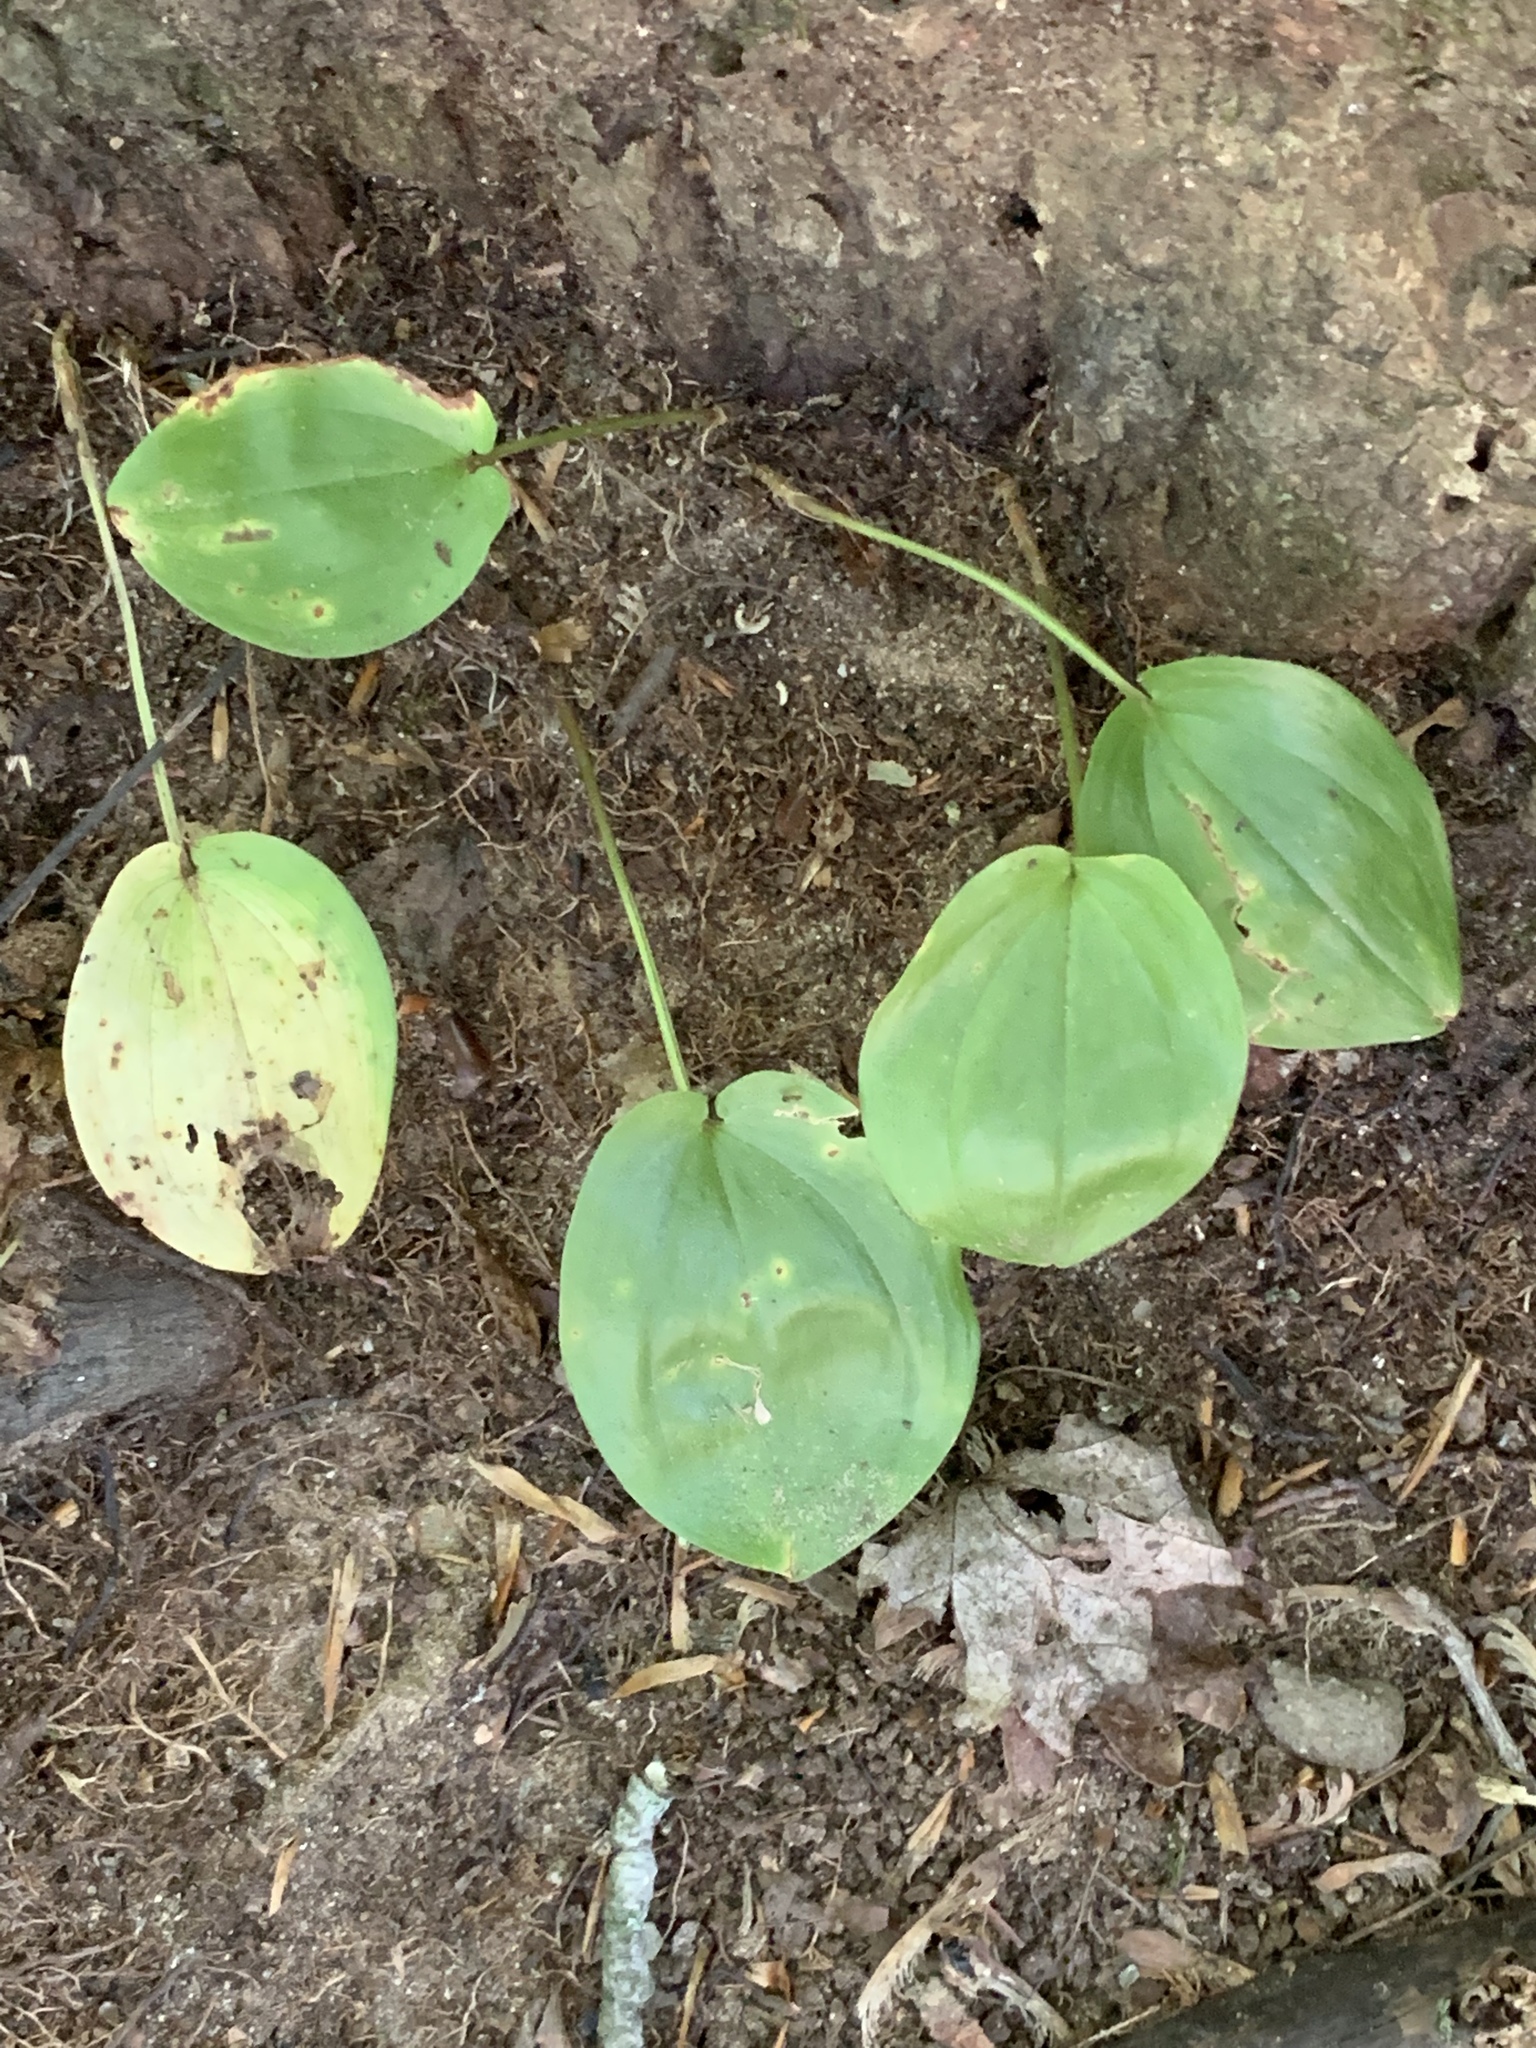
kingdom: Plantae
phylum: Tracheophyta
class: Liliopsida
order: Asparagales
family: Asparagaceae
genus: Maianthemum
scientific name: Maianthemum canadense
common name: False lily-of-the-valley
